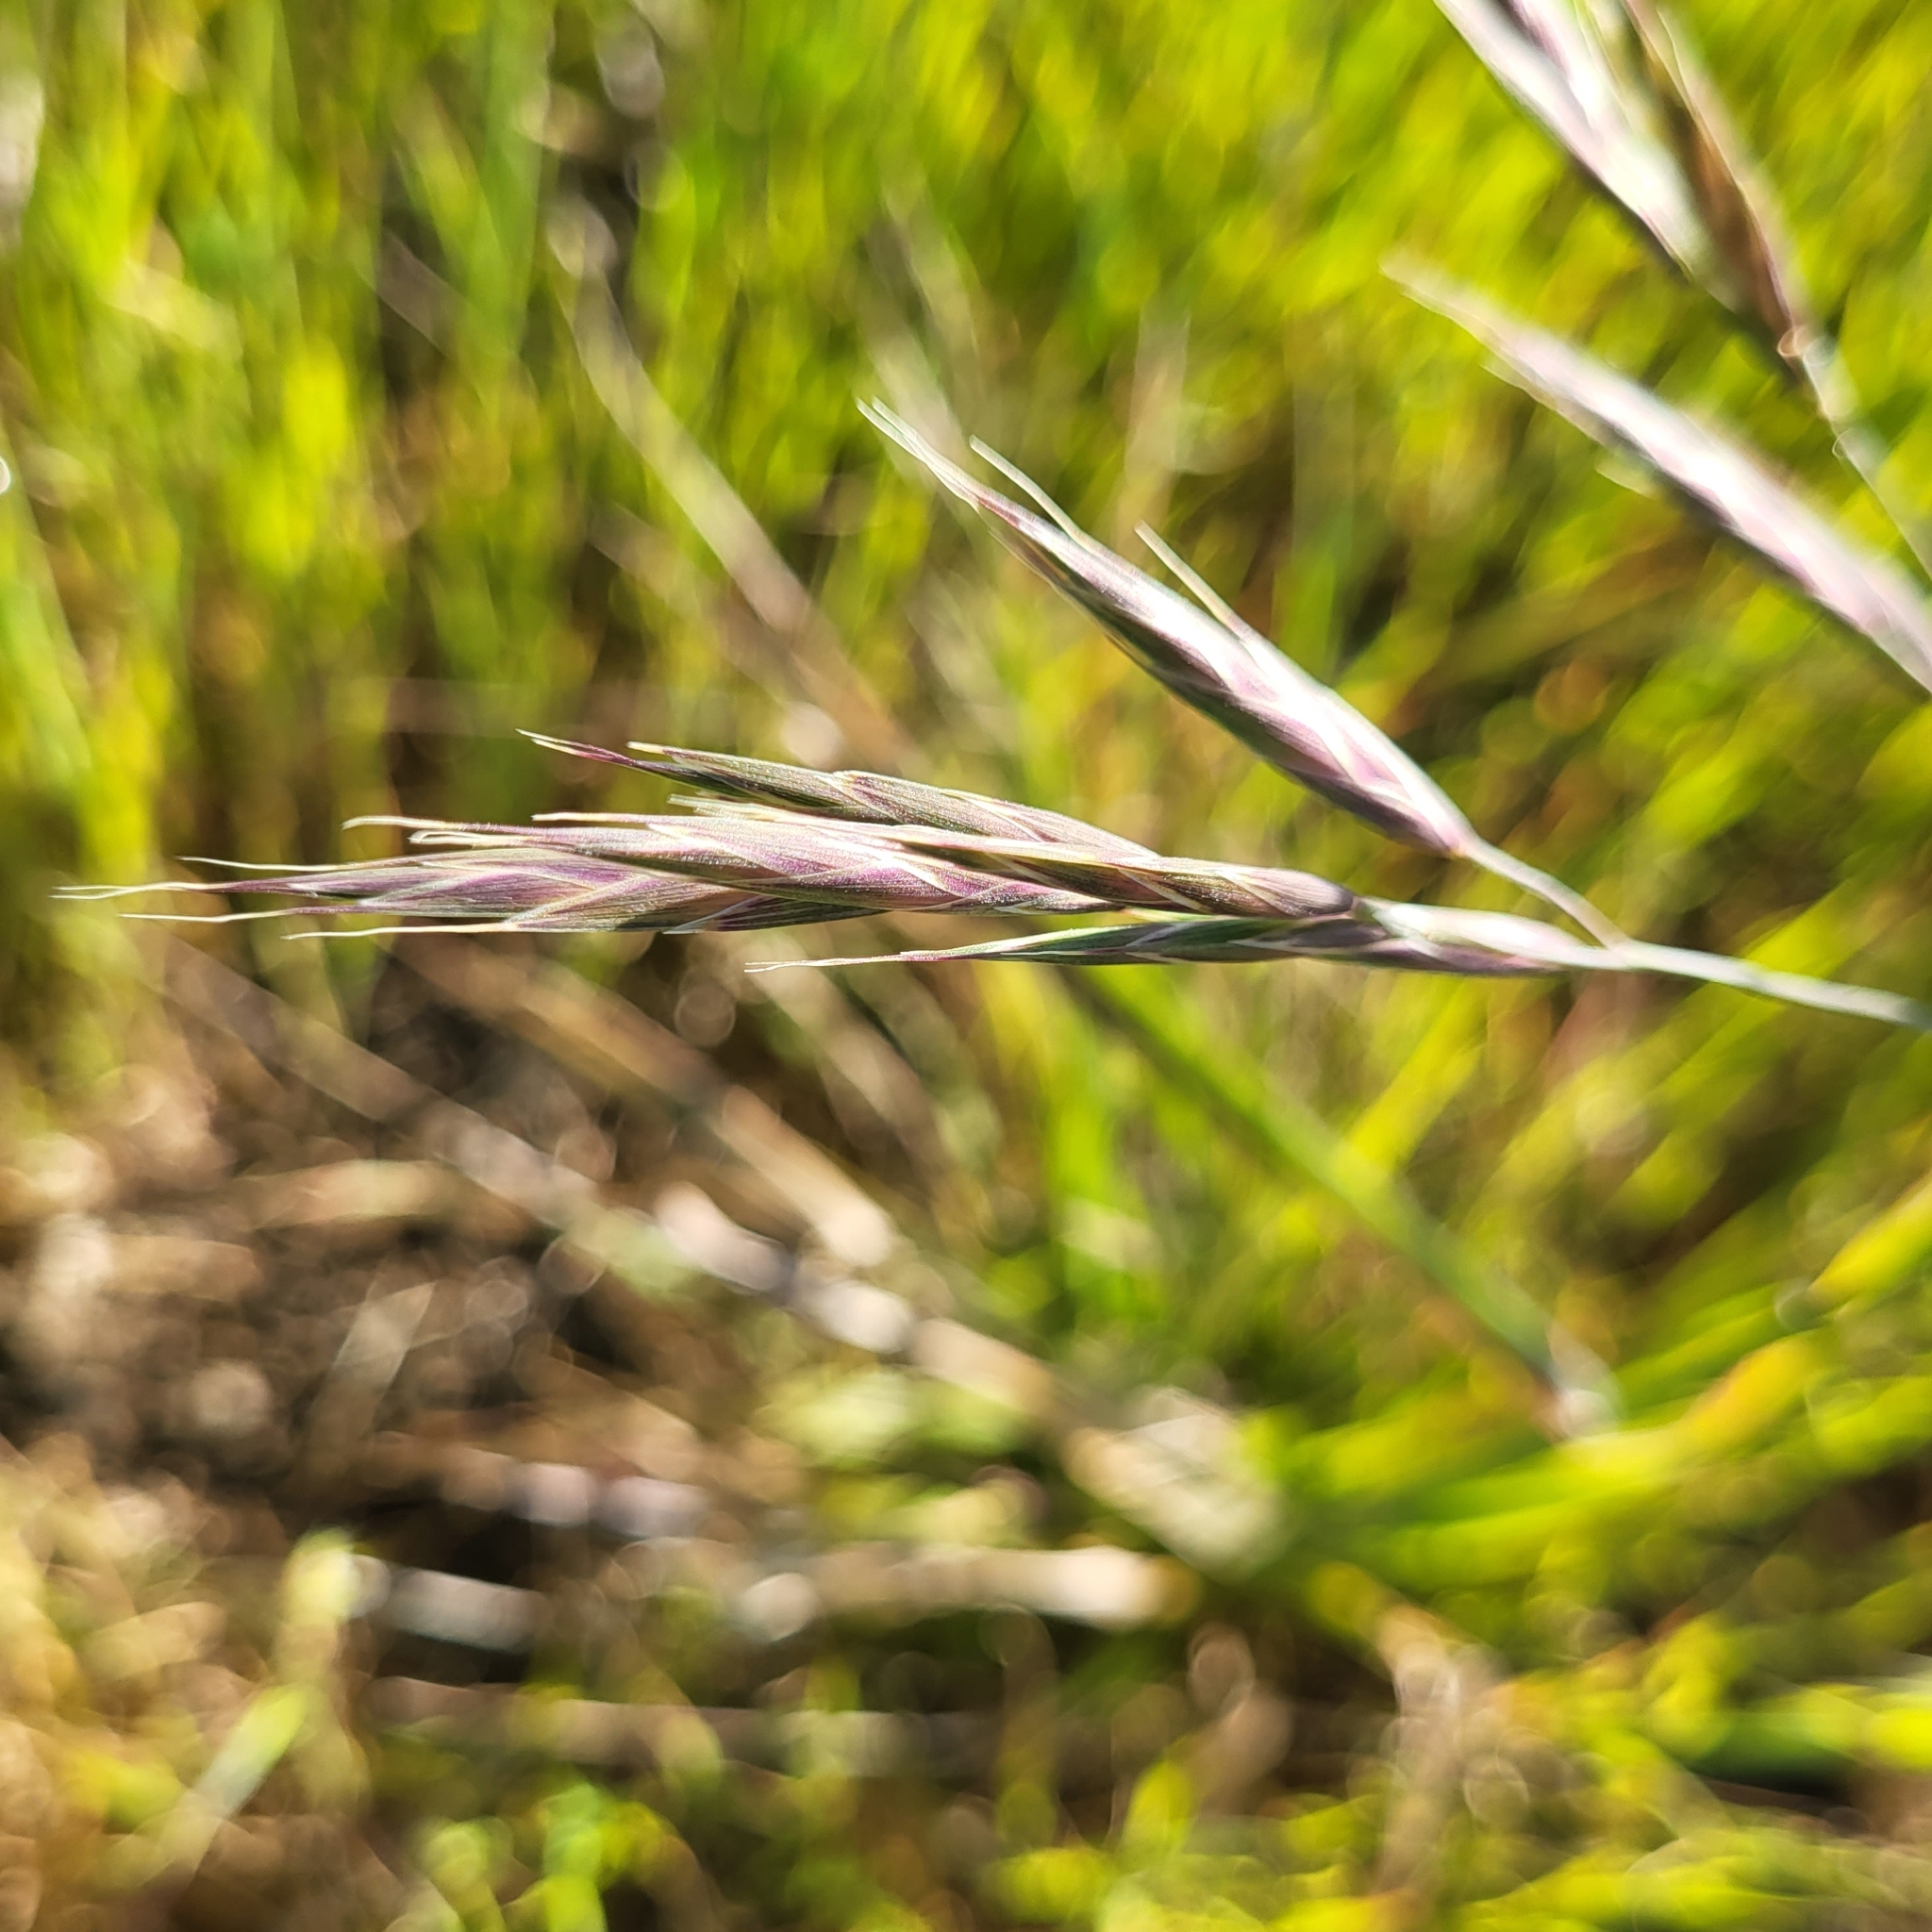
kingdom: Plantae
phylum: Tracheophyta
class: Liliopsida
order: Poales
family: Poaceae
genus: Bromus
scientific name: Bromus carinatus
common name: Mountain brome
